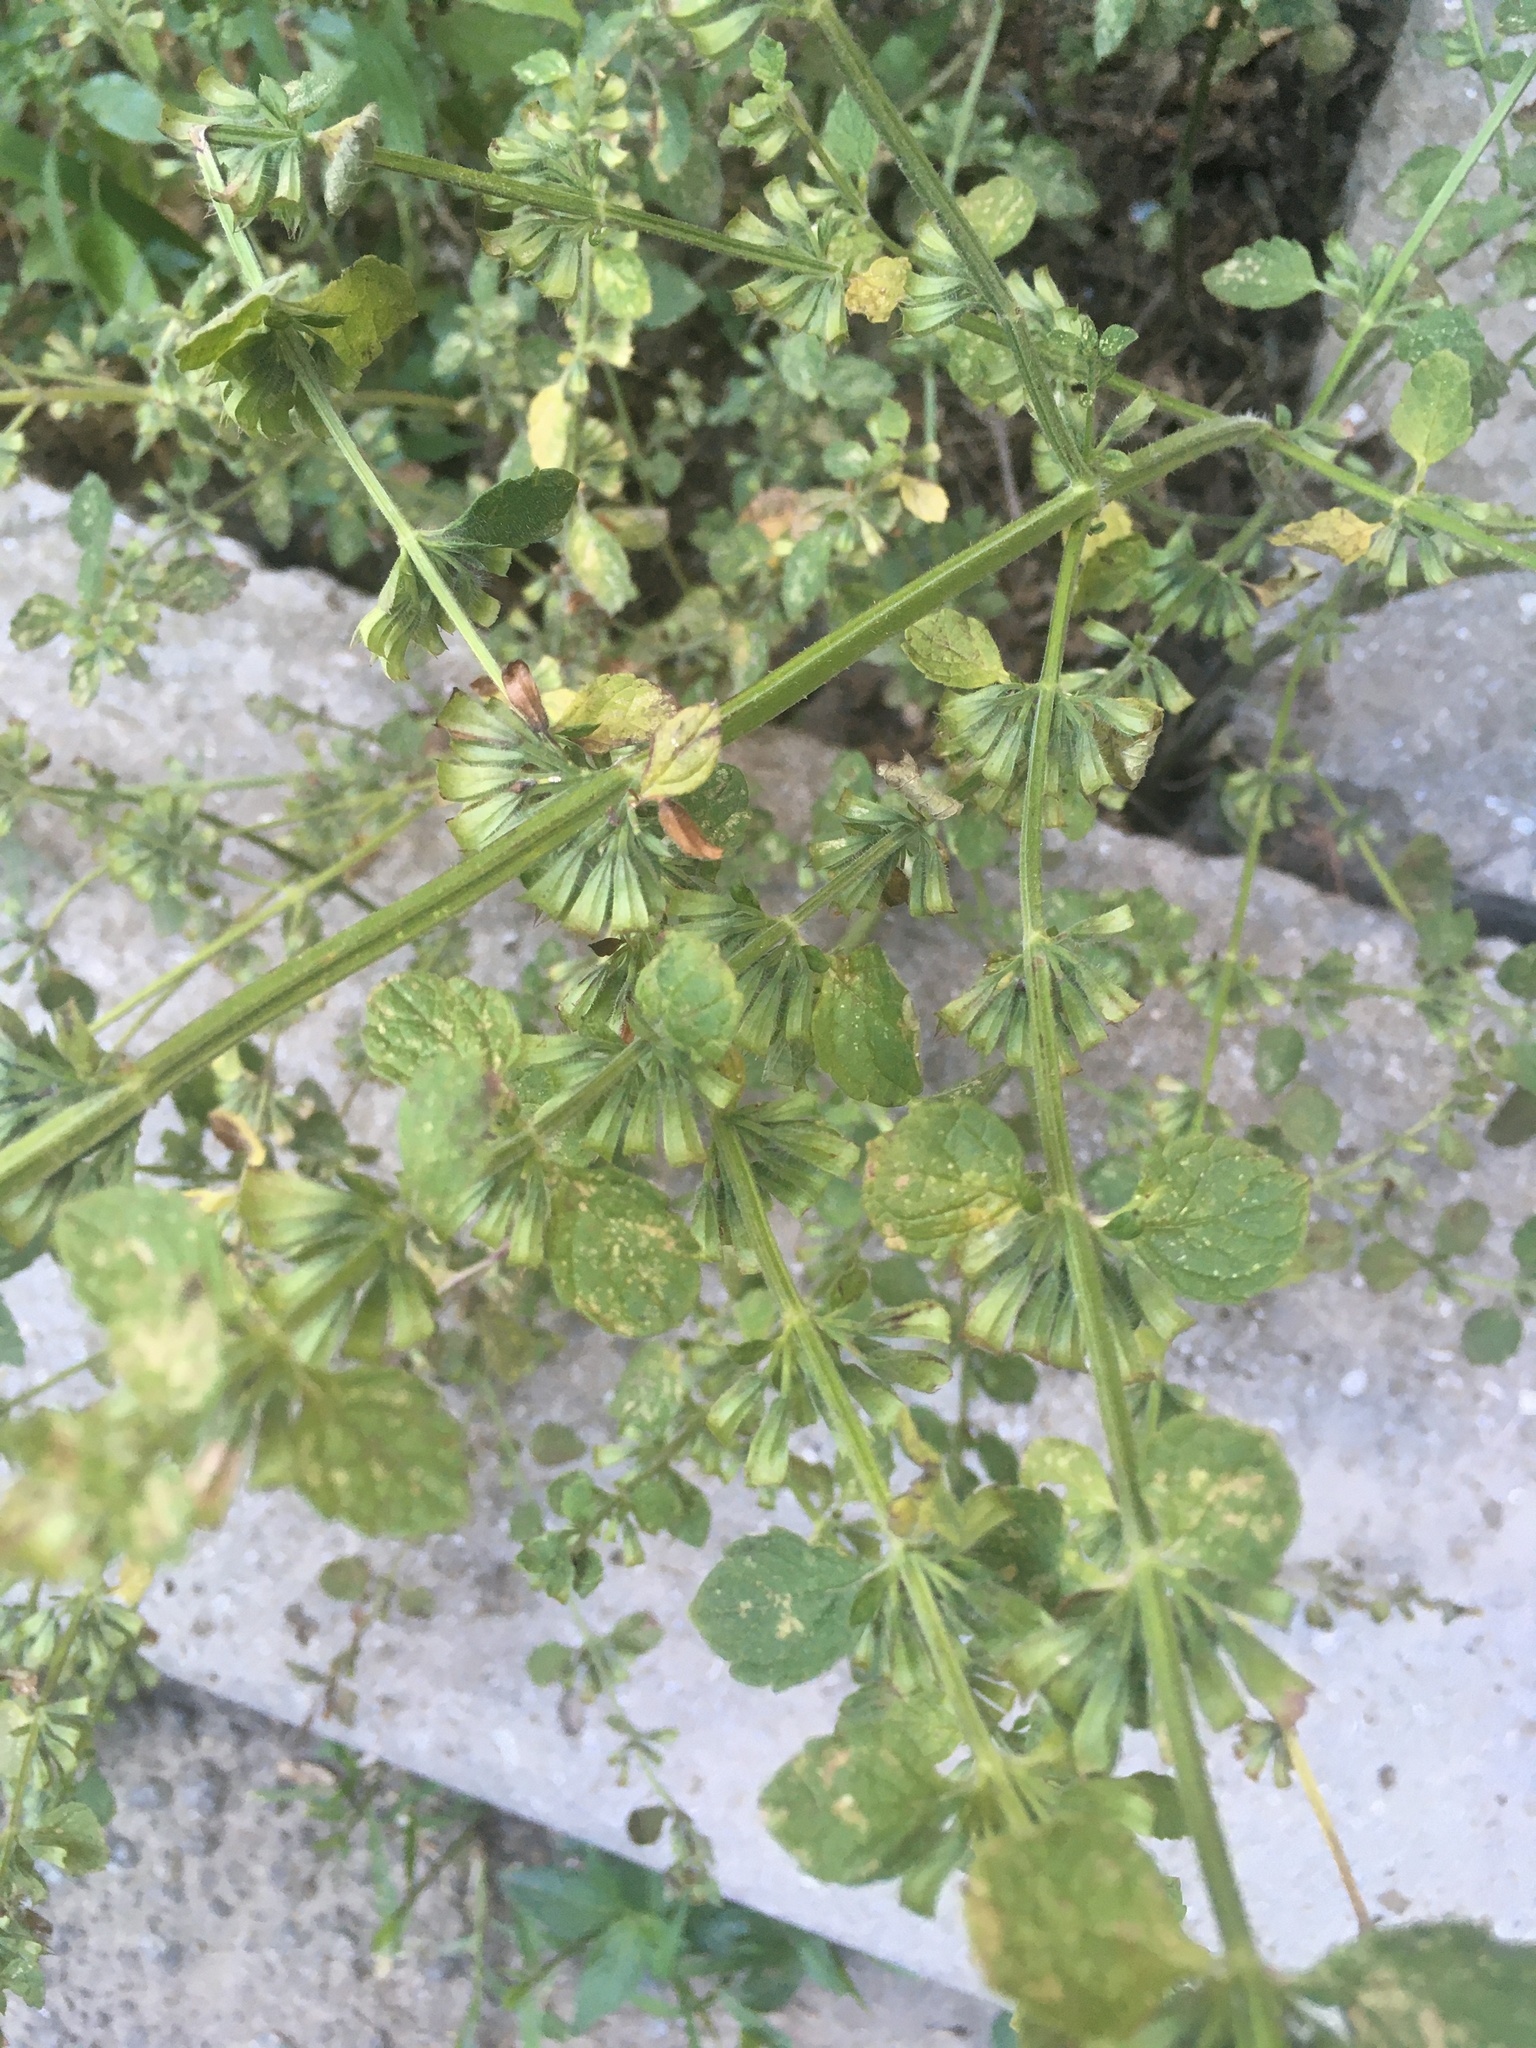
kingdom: Plantae
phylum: Tracheophyta
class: Magnoliopsida
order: Lamiales
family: Lamiaceae
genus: Melissa
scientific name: Melissa officinalis
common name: Balm
